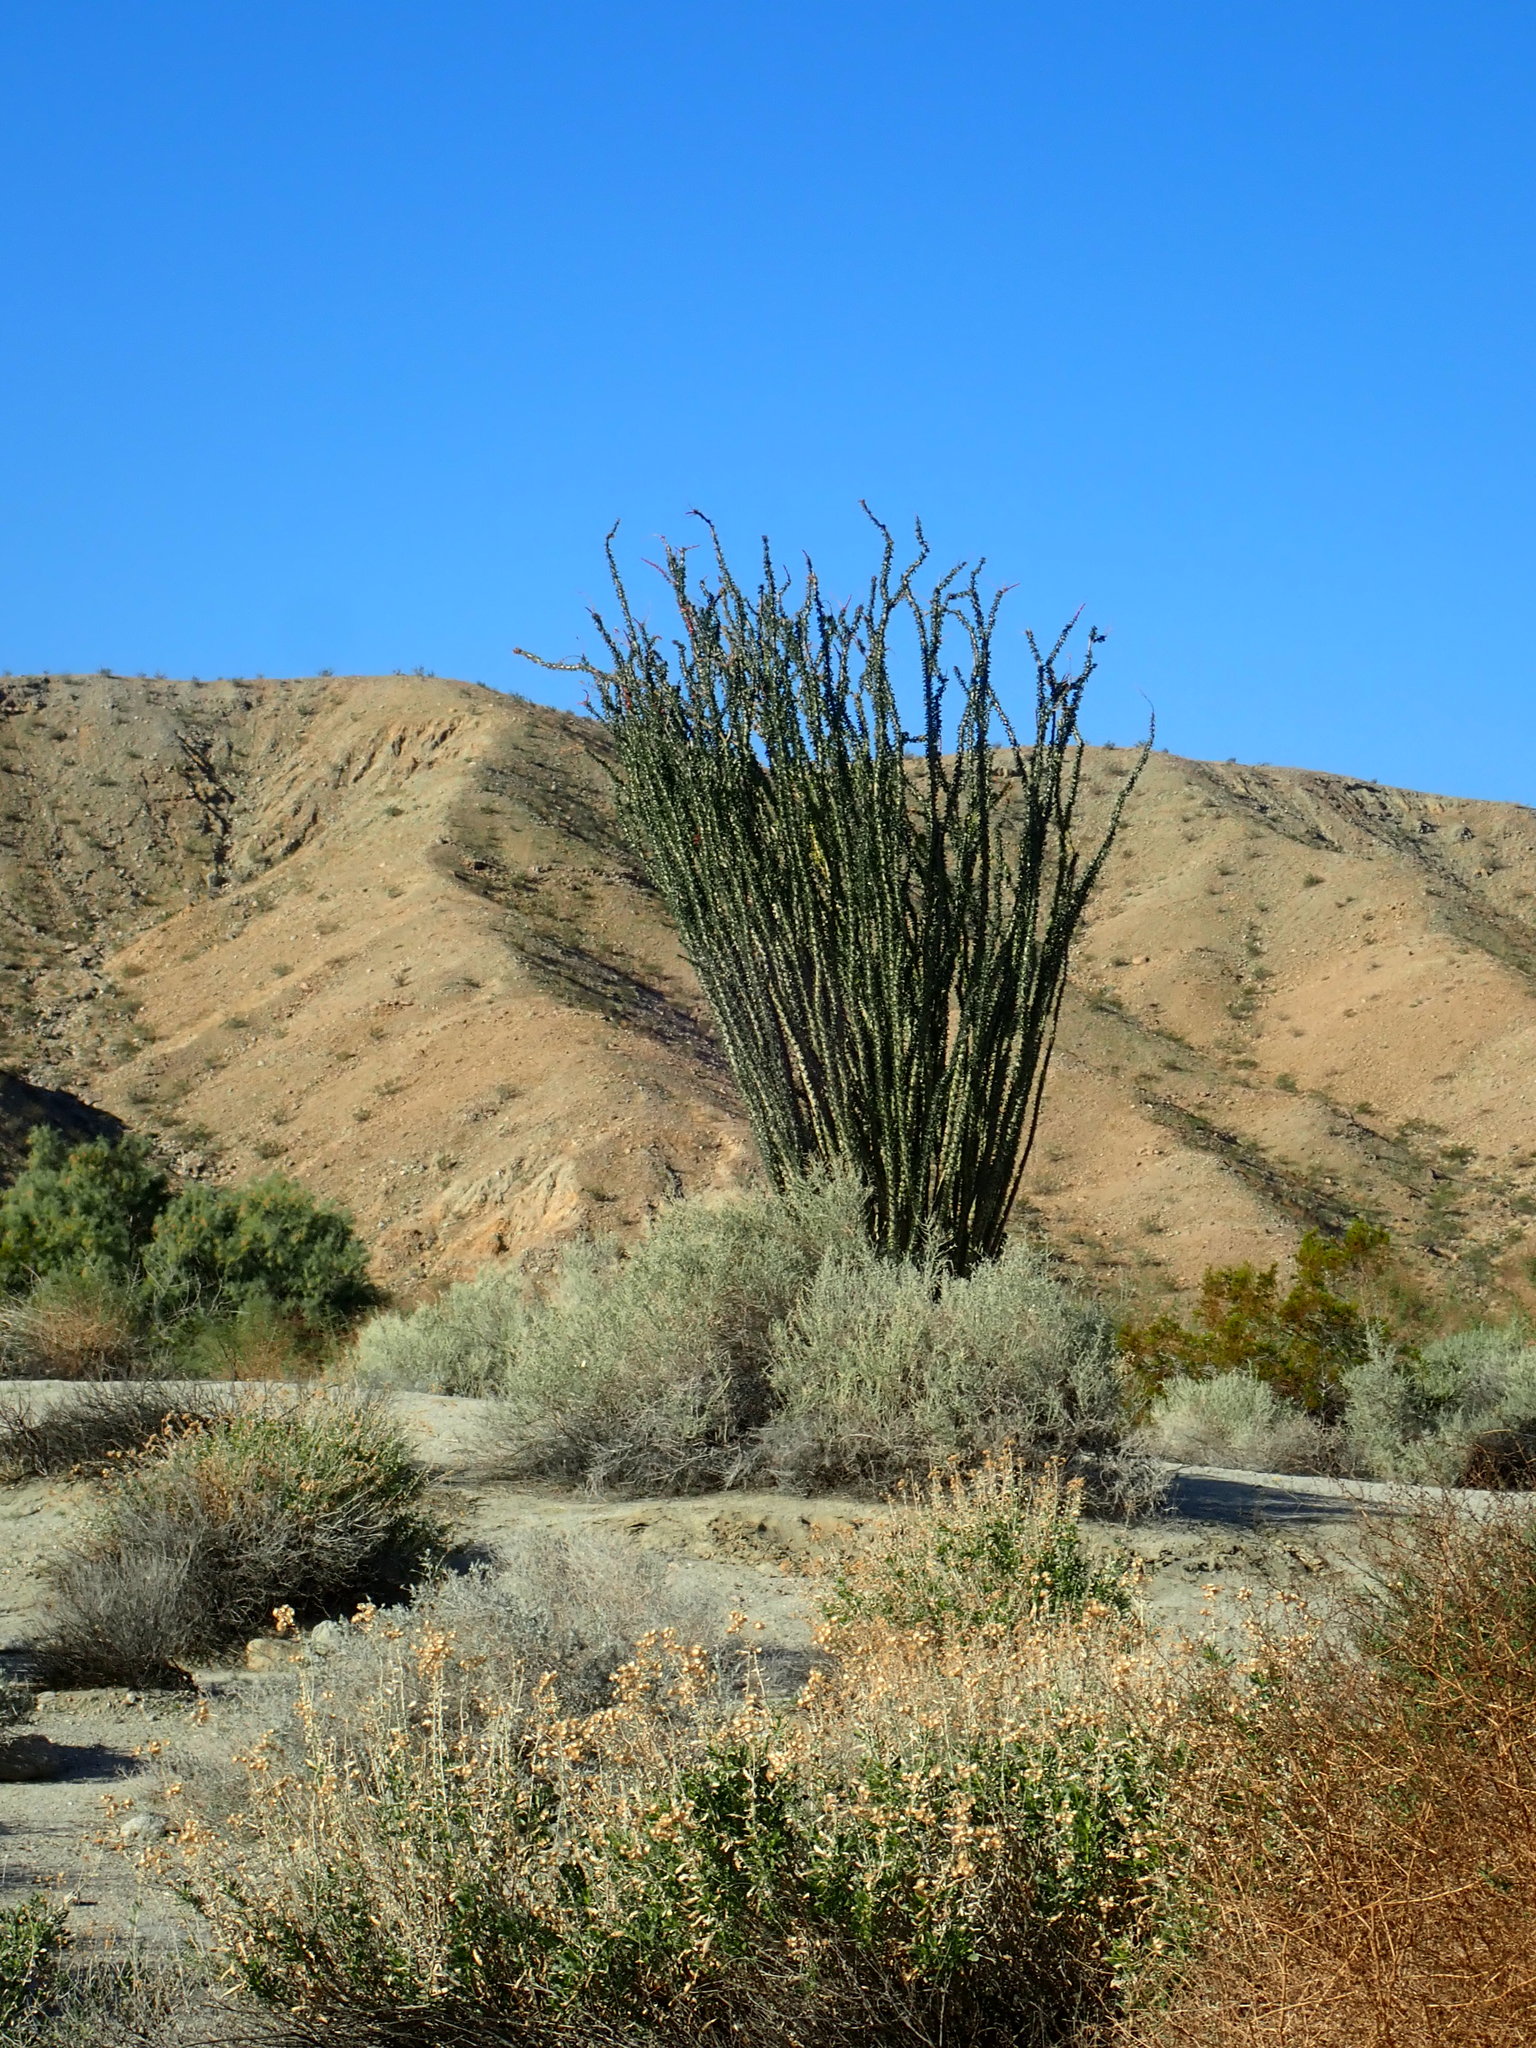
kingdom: Plantae
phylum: Tracheophyta
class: Magnoliopsida
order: Ericales
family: Fouquieriaceae
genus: Fouquieria
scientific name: Fouquieria splendens
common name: Vine-cactus
